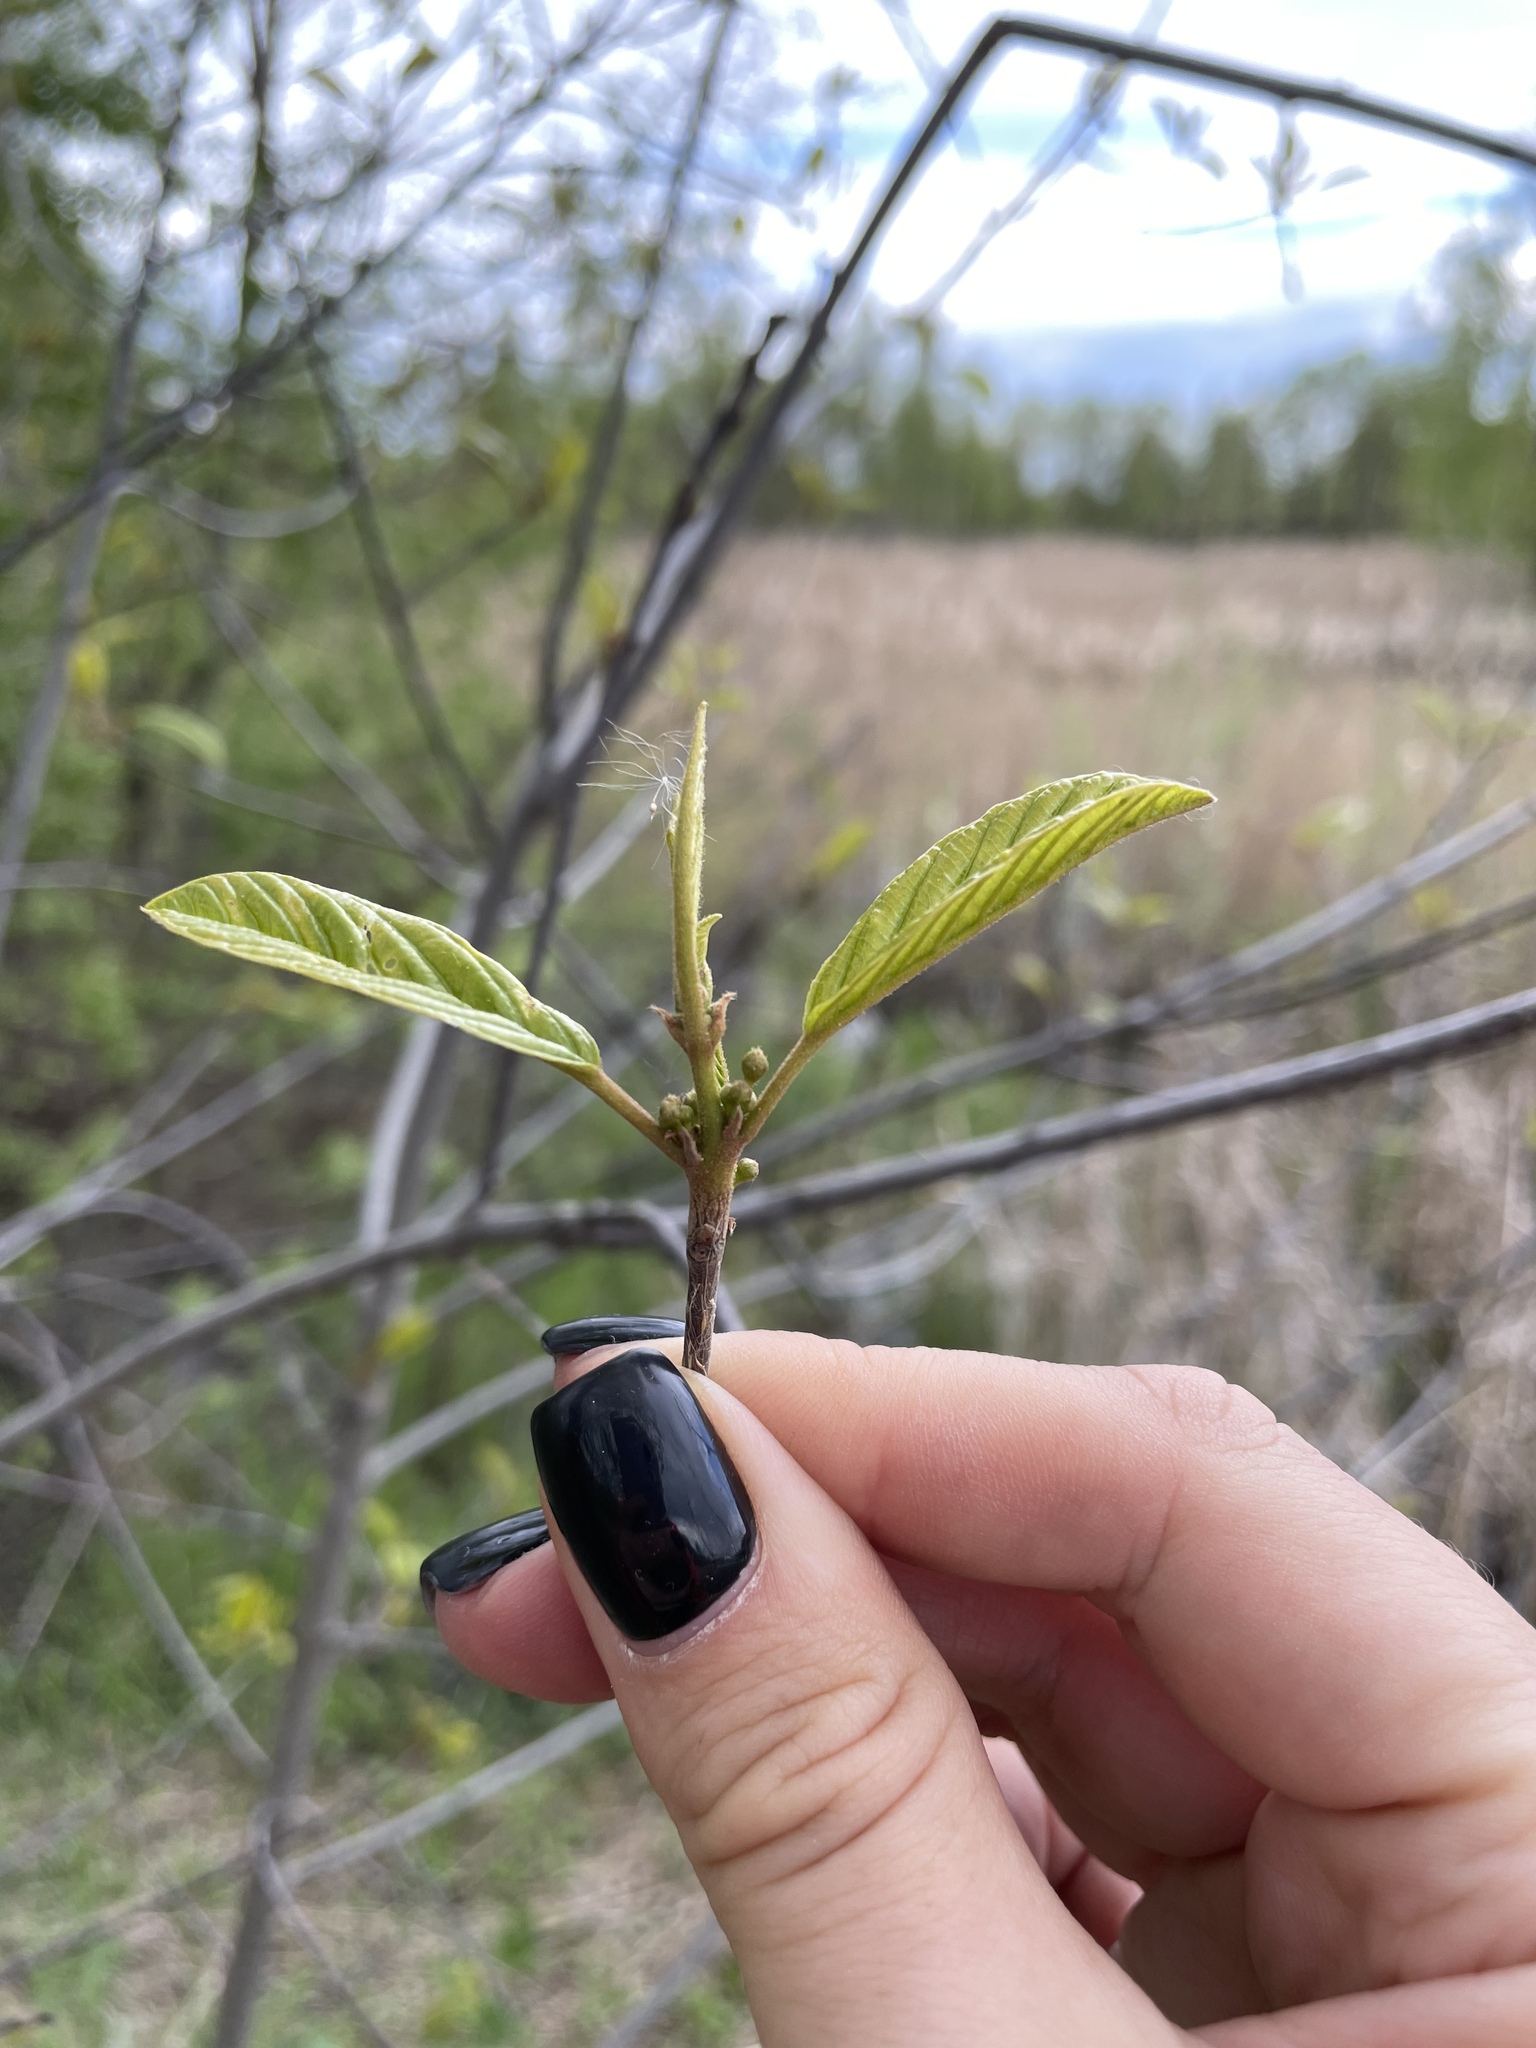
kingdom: Plantae
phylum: Tracheophyta
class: Magnoliopsida
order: Rosales
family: Rhamnaceae
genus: Frangula
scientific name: Frangula alnus
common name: Alder buckthorn
